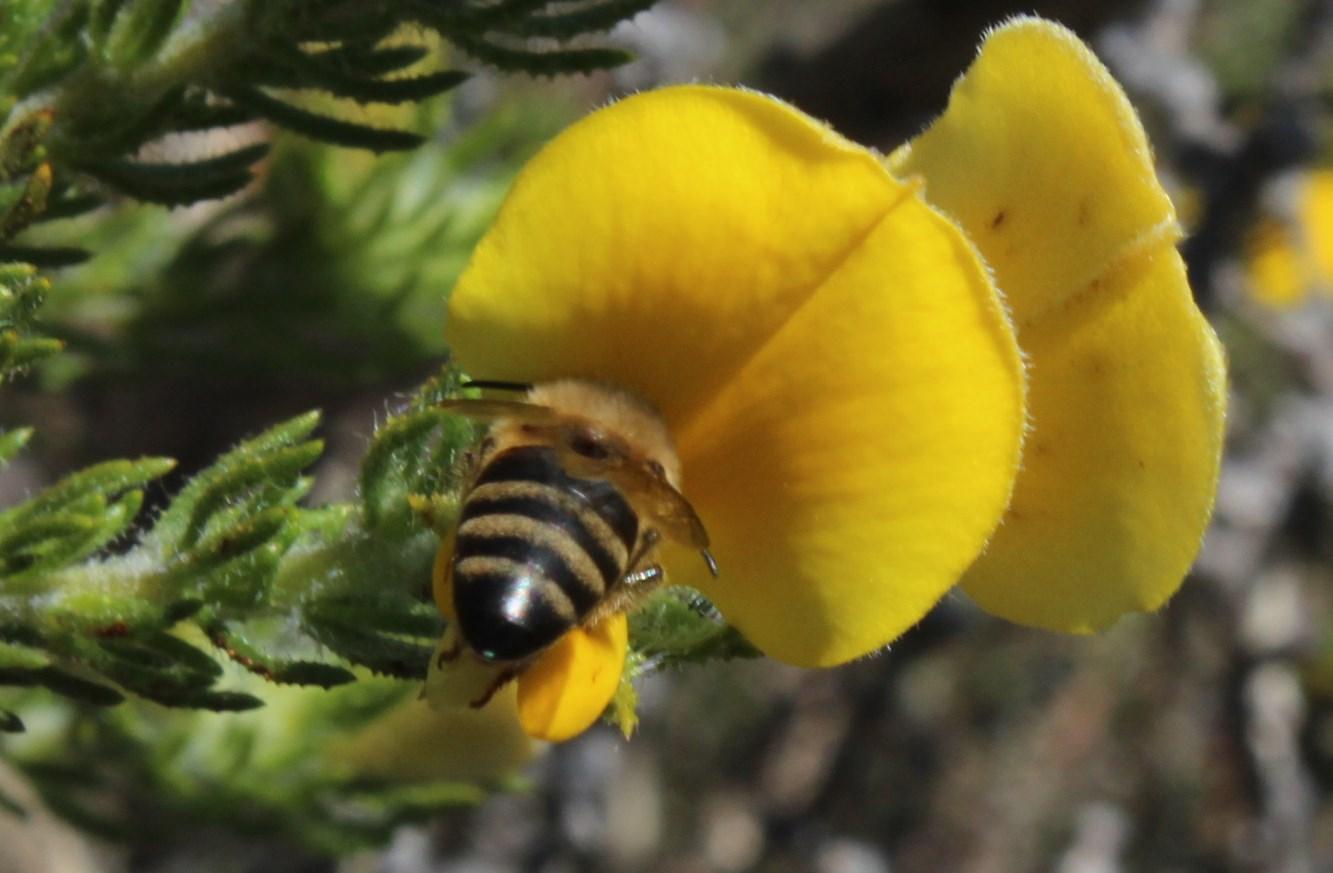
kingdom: Animalia
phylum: Arthropoda
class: Insecta
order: Hymenoptera
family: Apidae
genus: Apis
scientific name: Apis mellifera
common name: Honey bee
